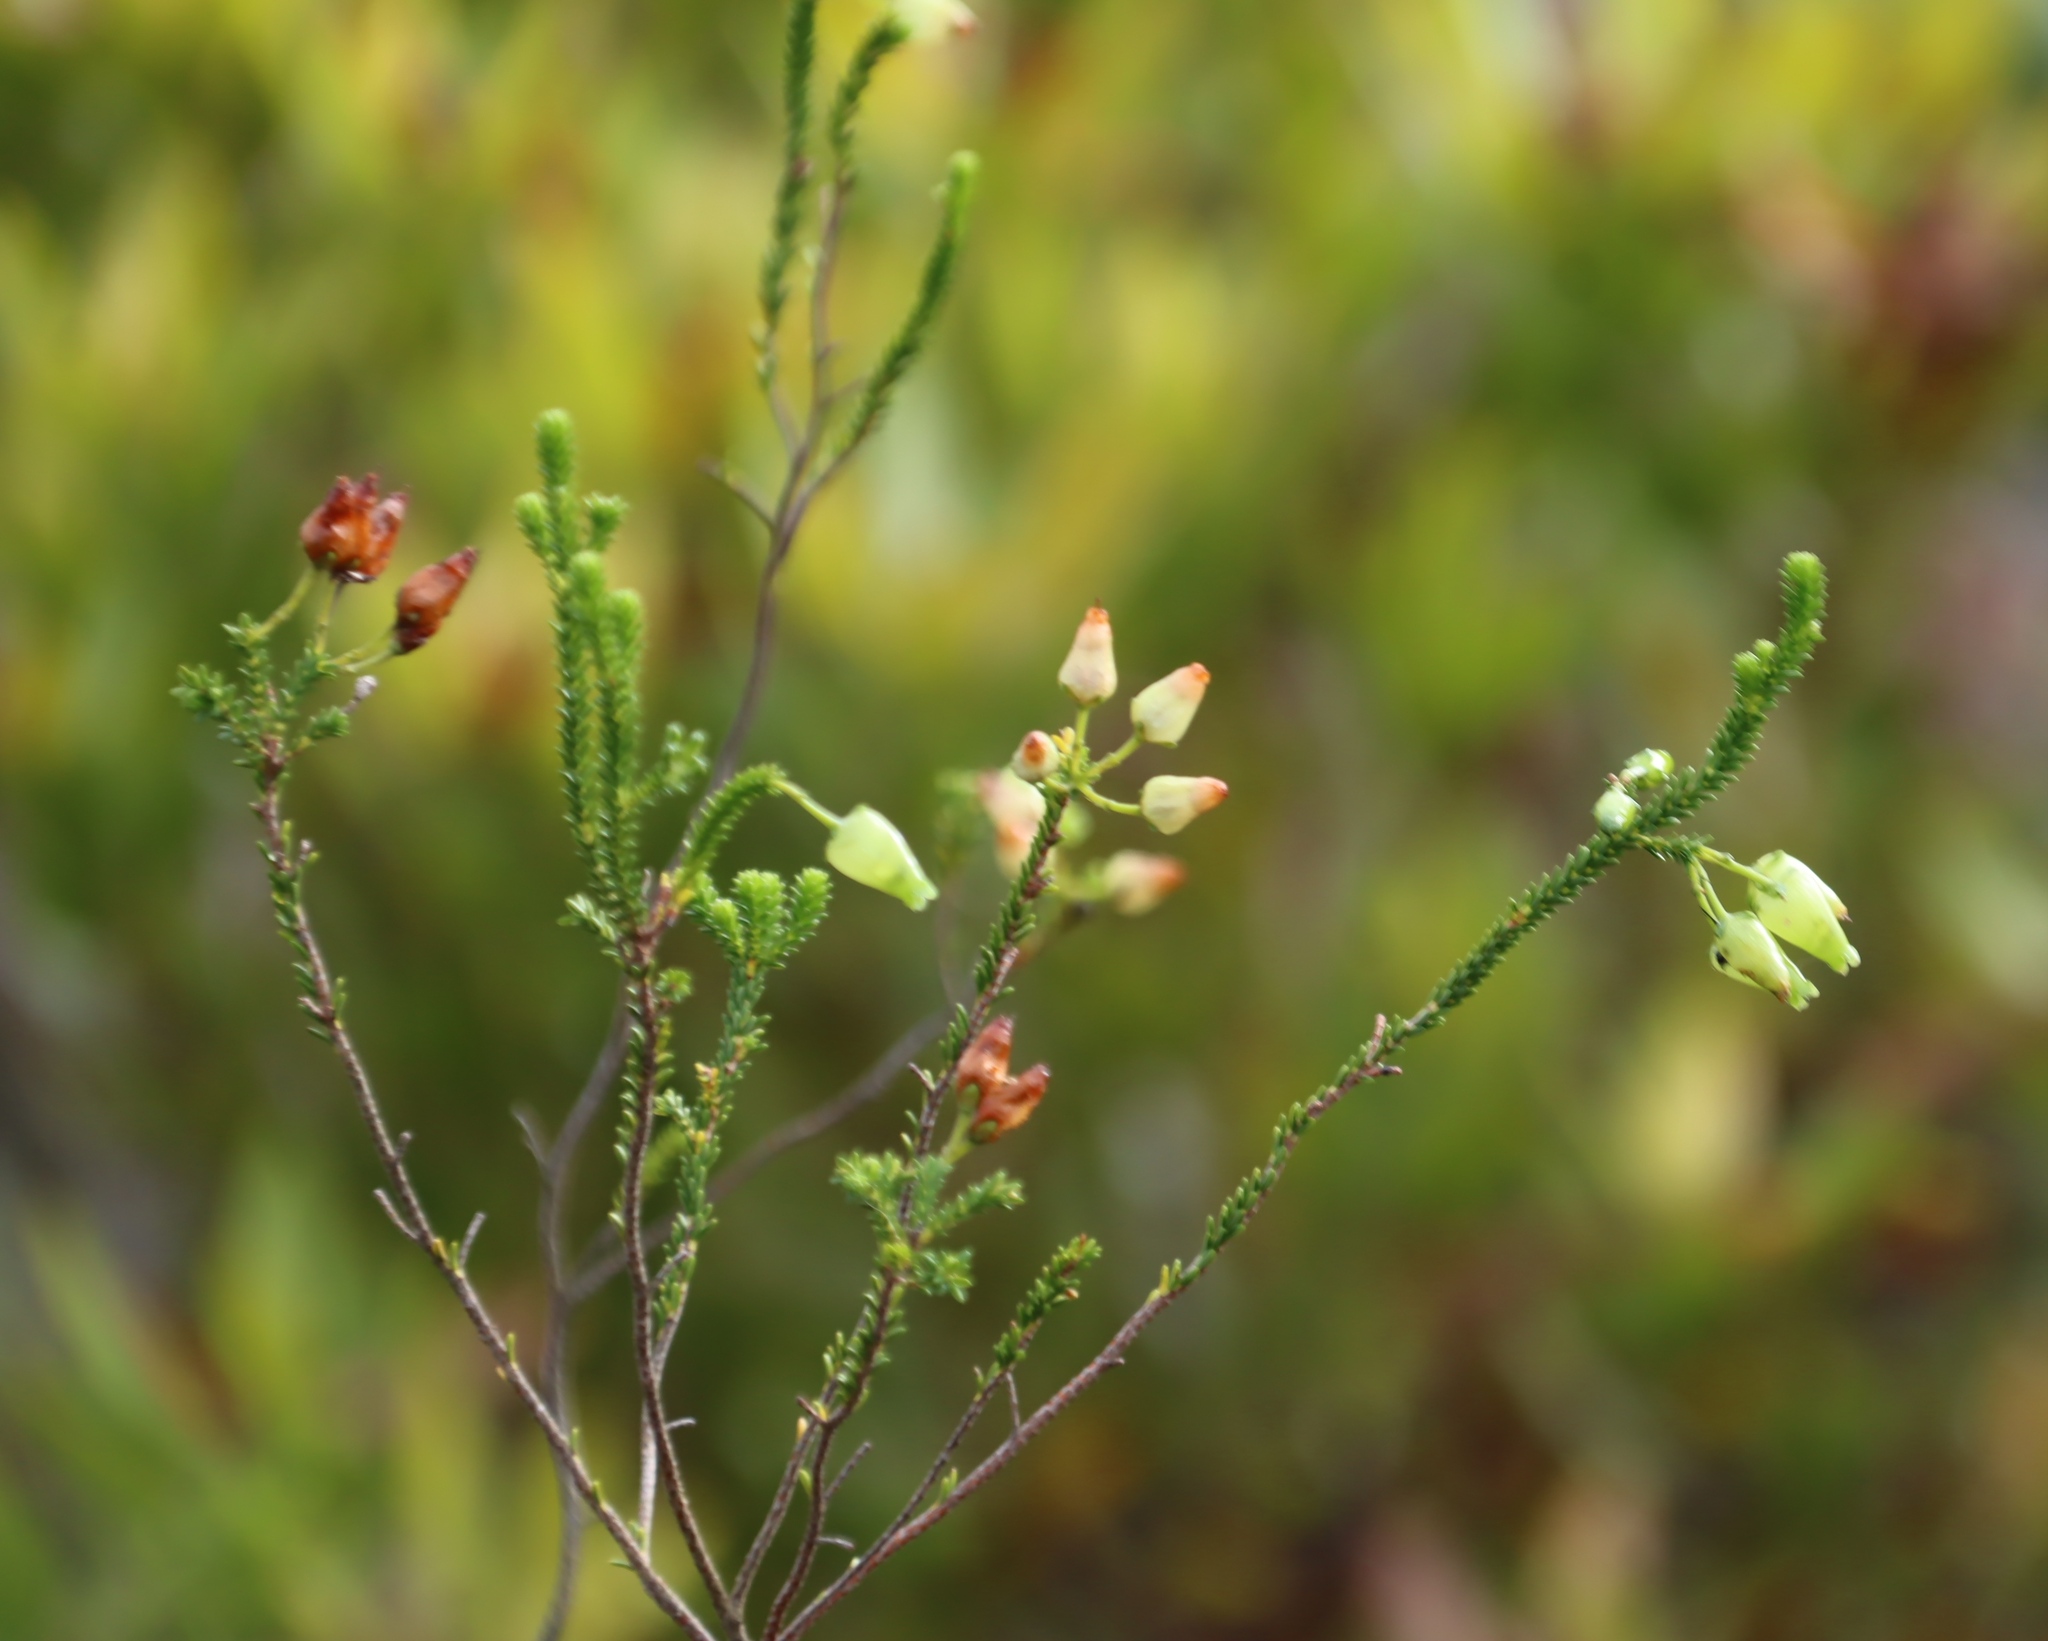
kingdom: Plantae
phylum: Tracheophyta
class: Magnoliopsida
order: Ericales
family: Ericaceae
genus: Erica
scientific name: Erica urna-viridis
